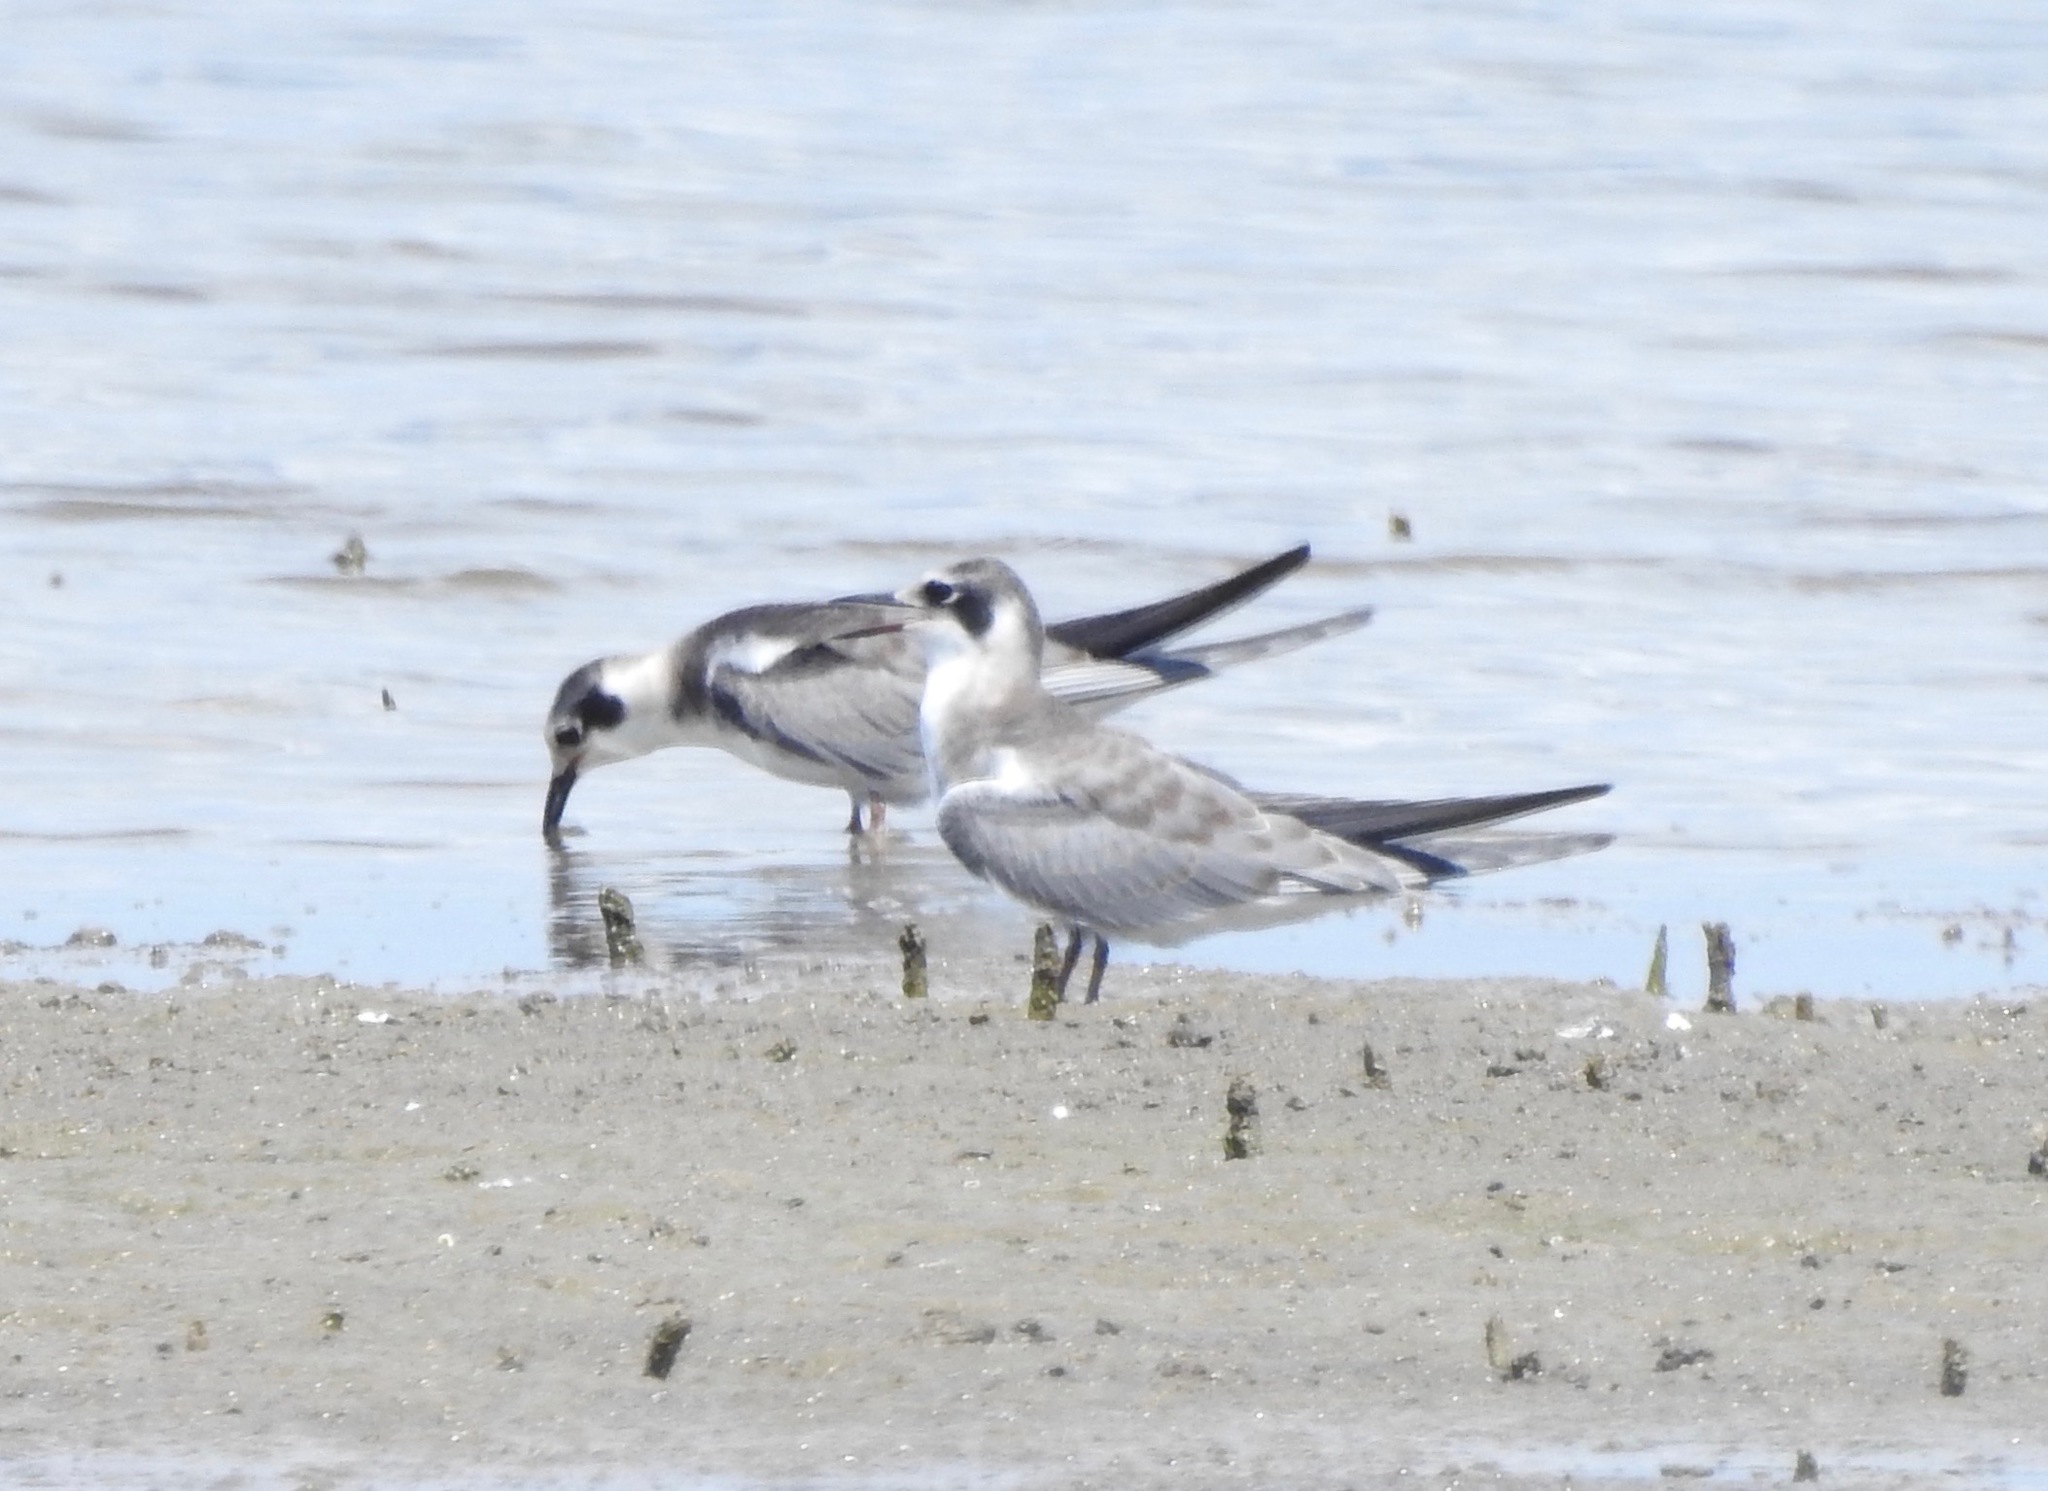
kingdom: Animalia
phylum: Chordata
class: Aves
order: Charadriiformes
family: Laridae
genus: Chlidonias
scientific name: Chlidonias niger
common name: Black tern
